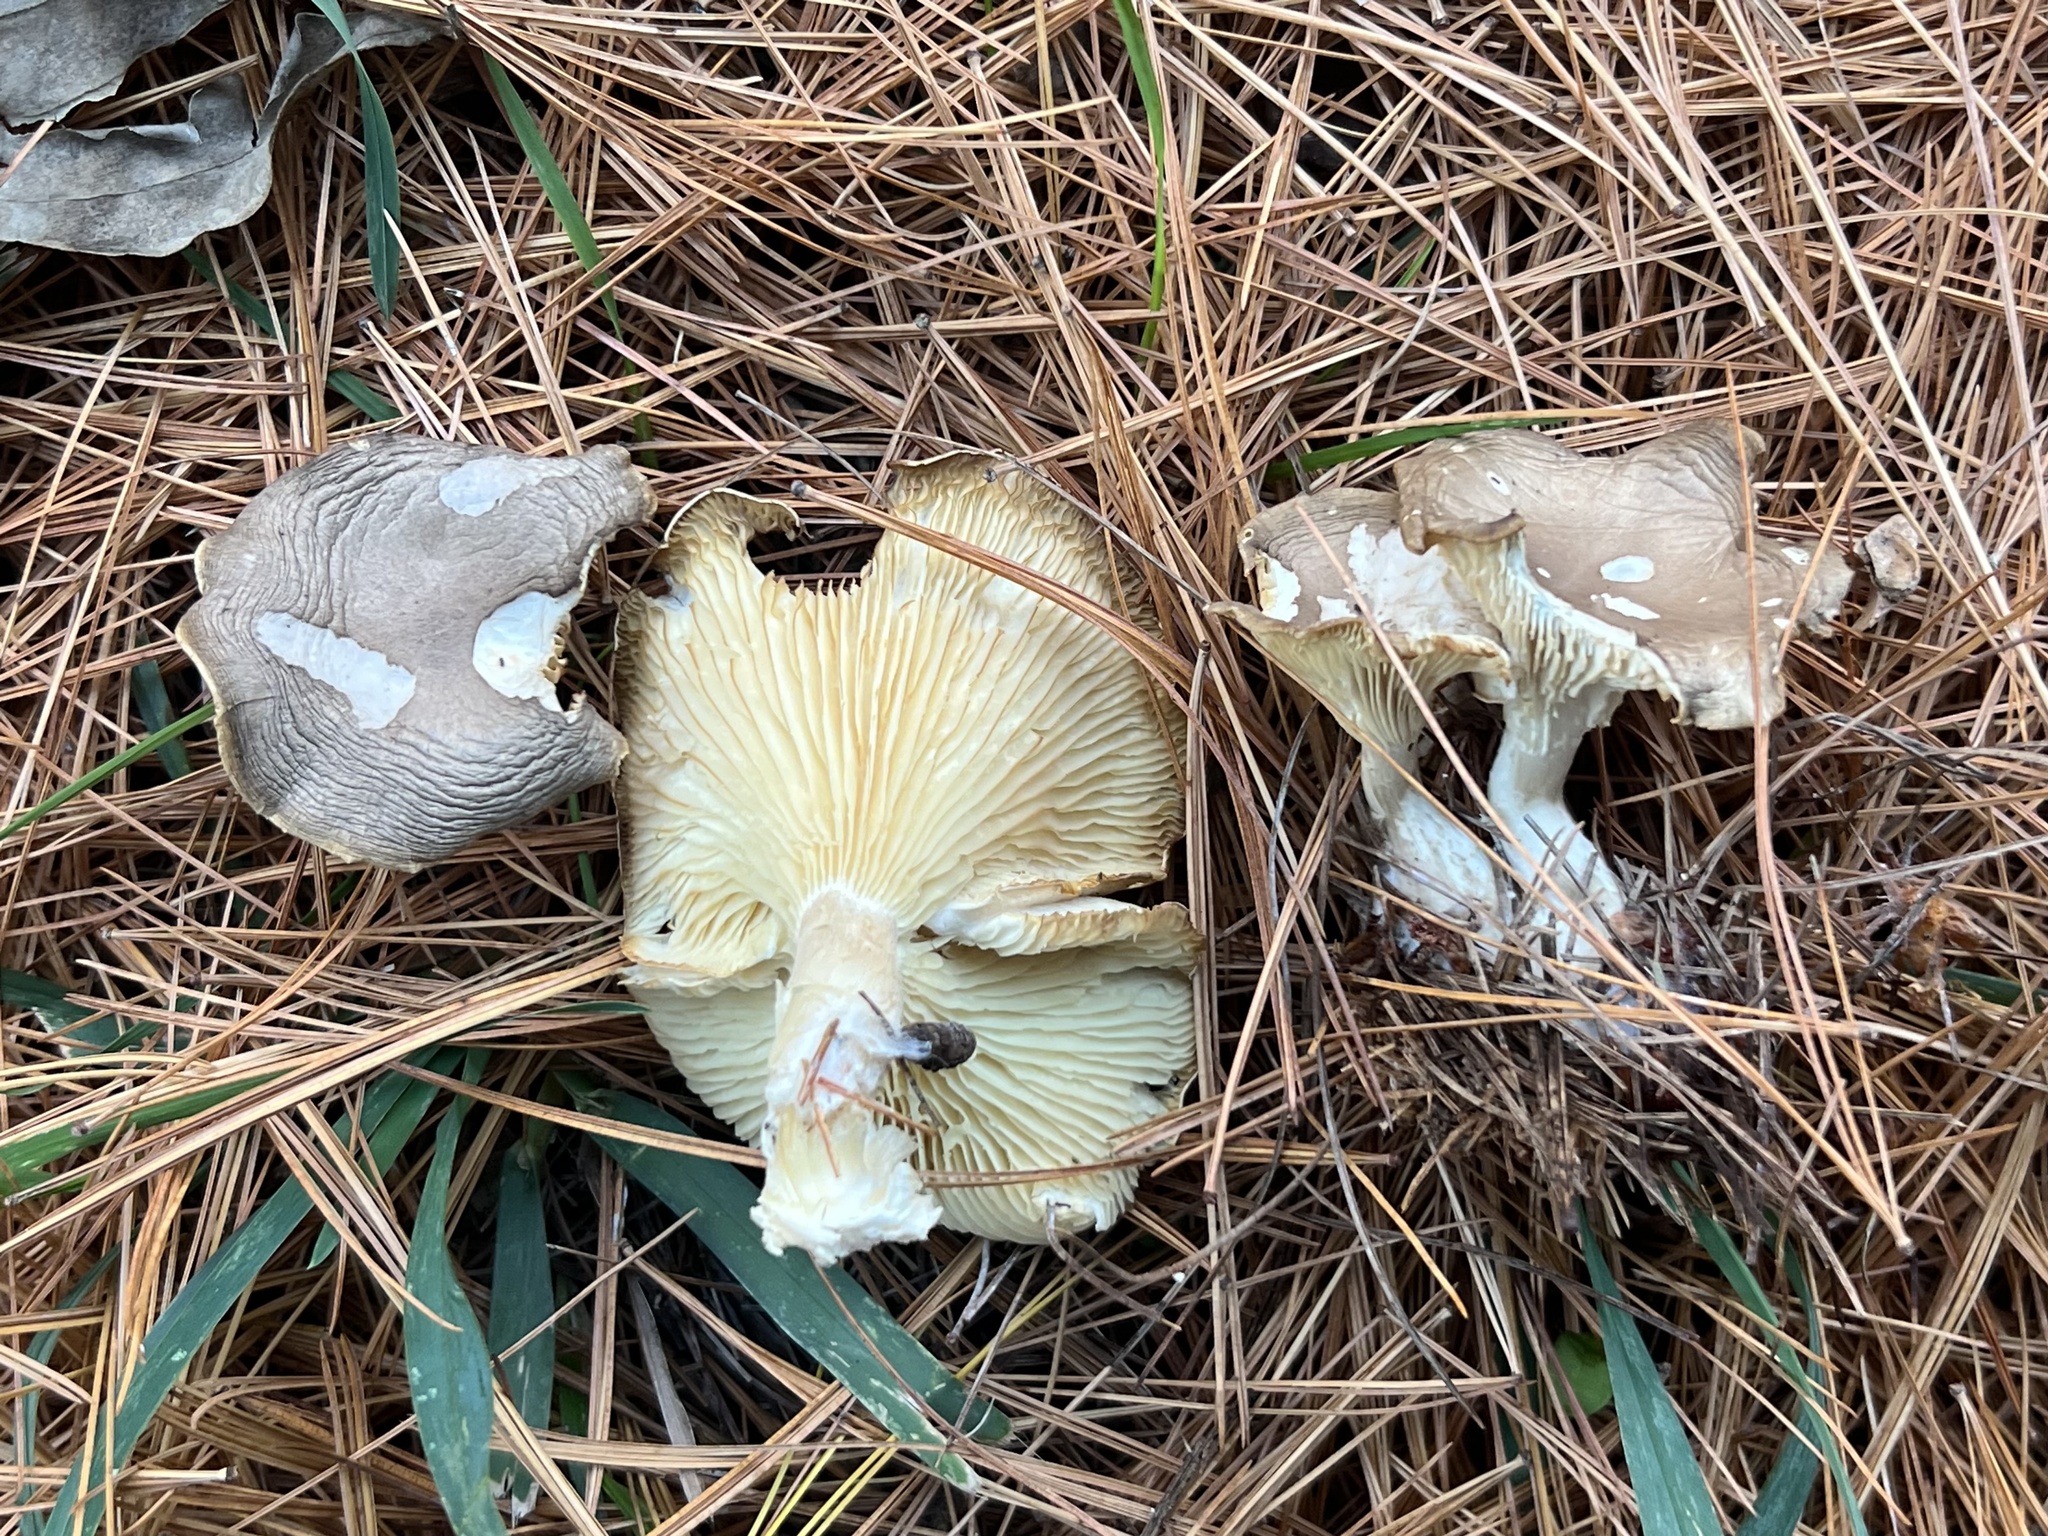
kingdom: Fungi
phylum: Basidiomycota
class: Agaricomycetes
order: Agaricales
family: Hygrophoraceae
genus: Ampulloclitocybe
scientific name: Ampulloclitocybe clavipes
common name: Club foot
